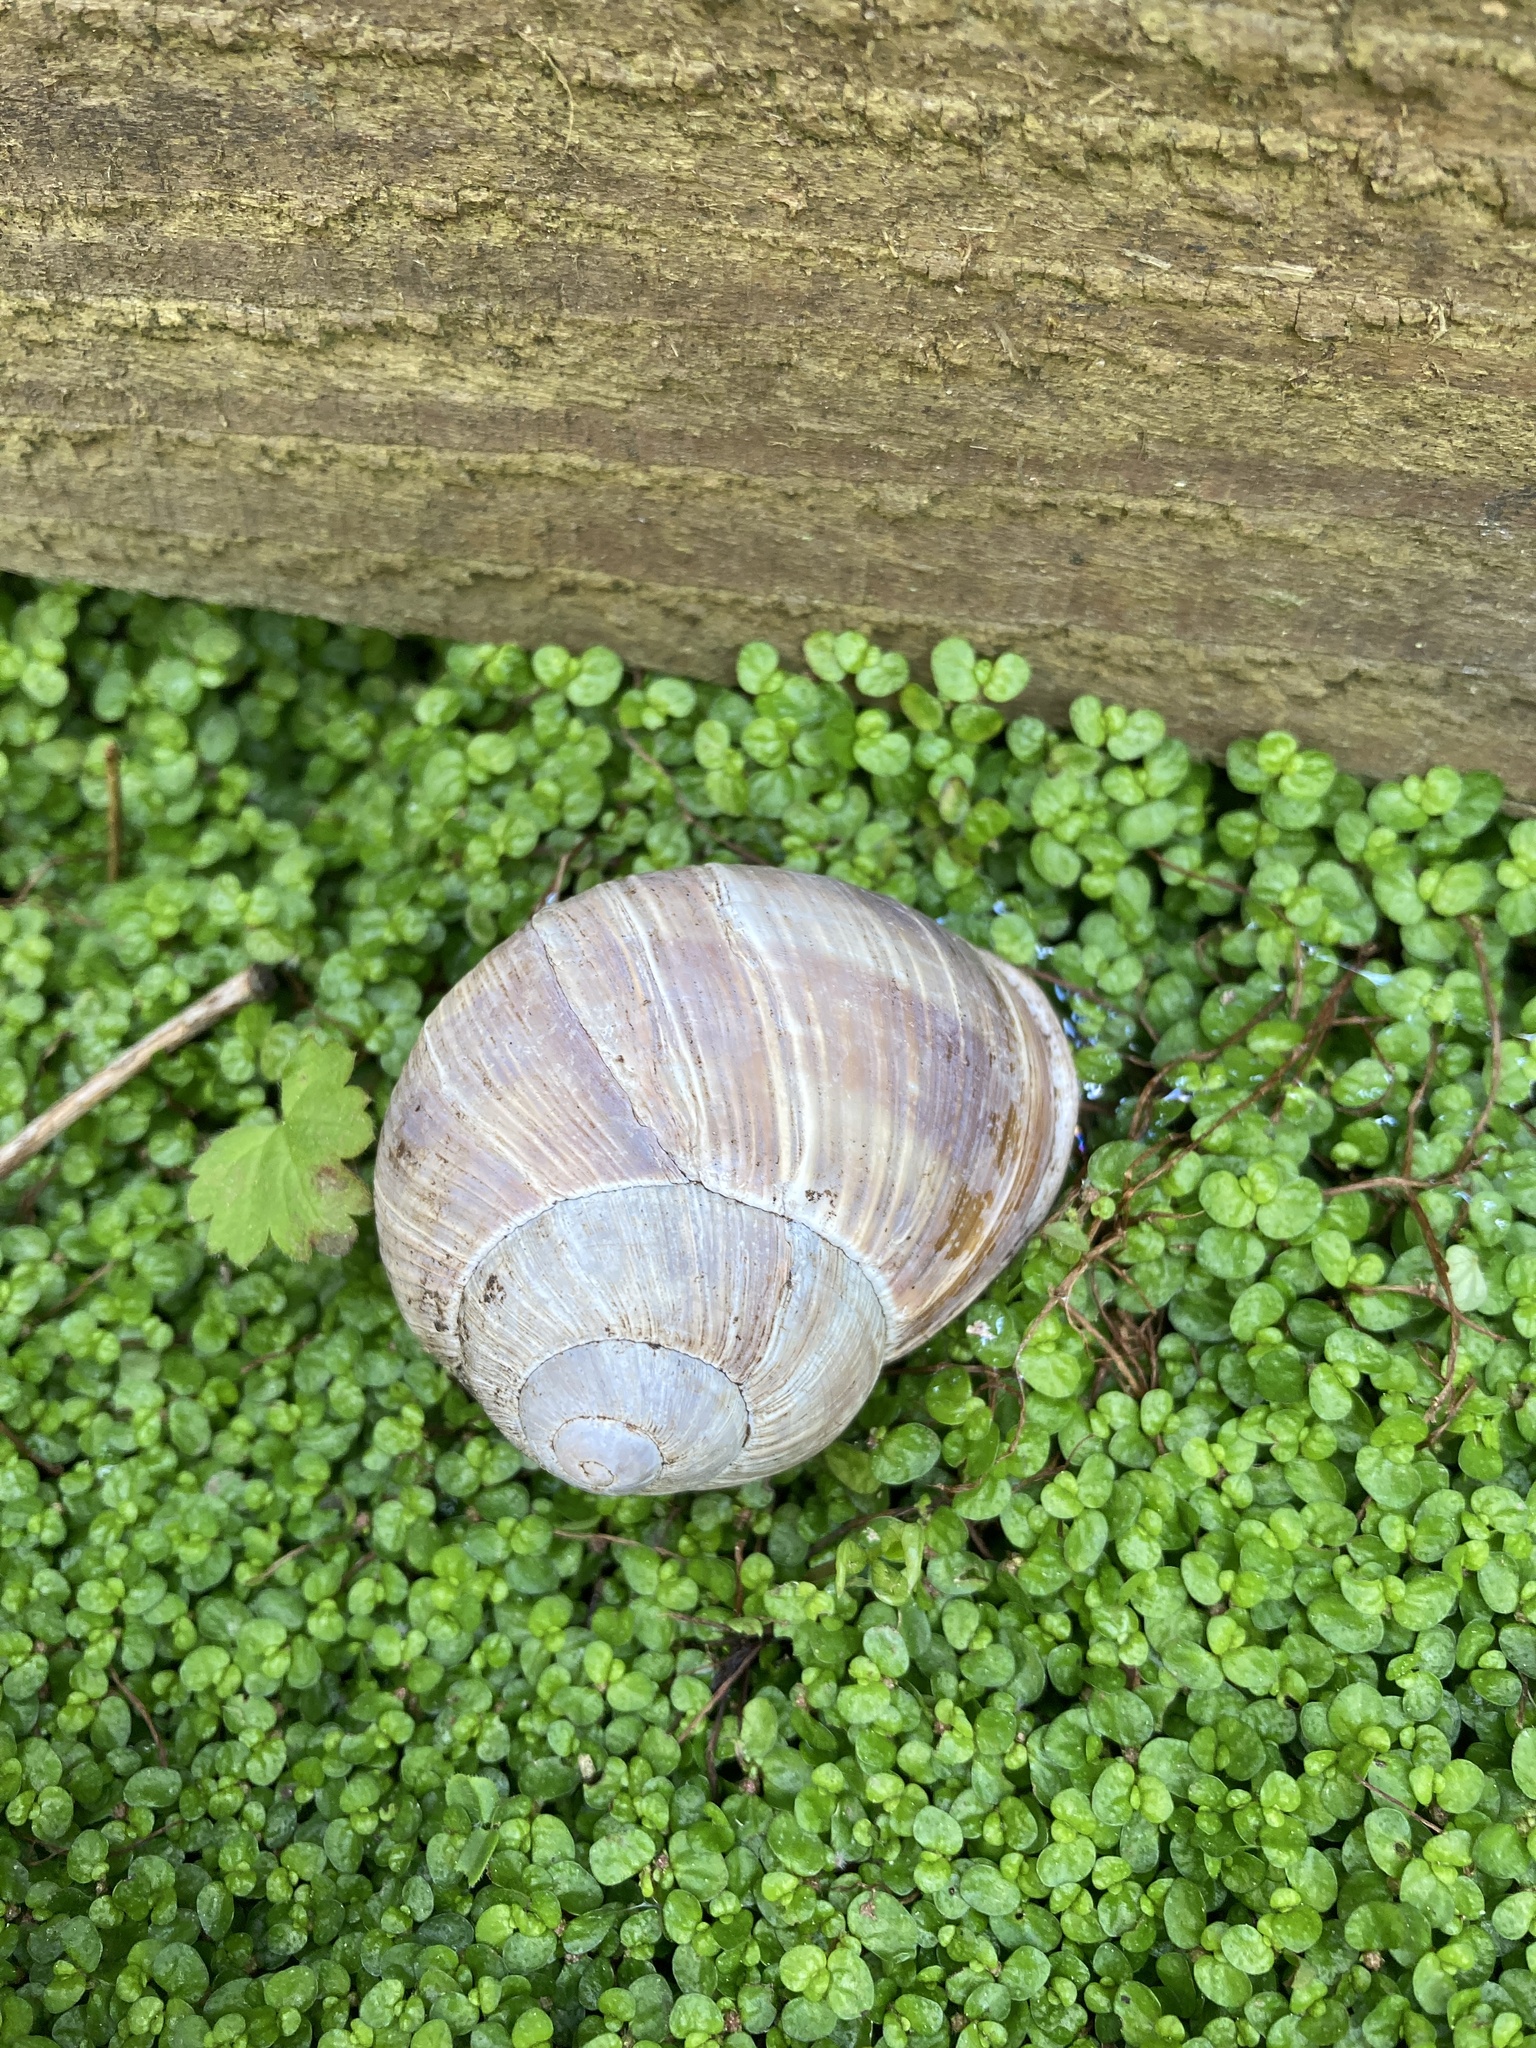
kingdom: Animalia
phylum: Mollusca
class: Gastropoda
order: Stylommatophora
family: Helicidae
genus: Helix
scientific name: Helix pomatia
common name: Roman snail
